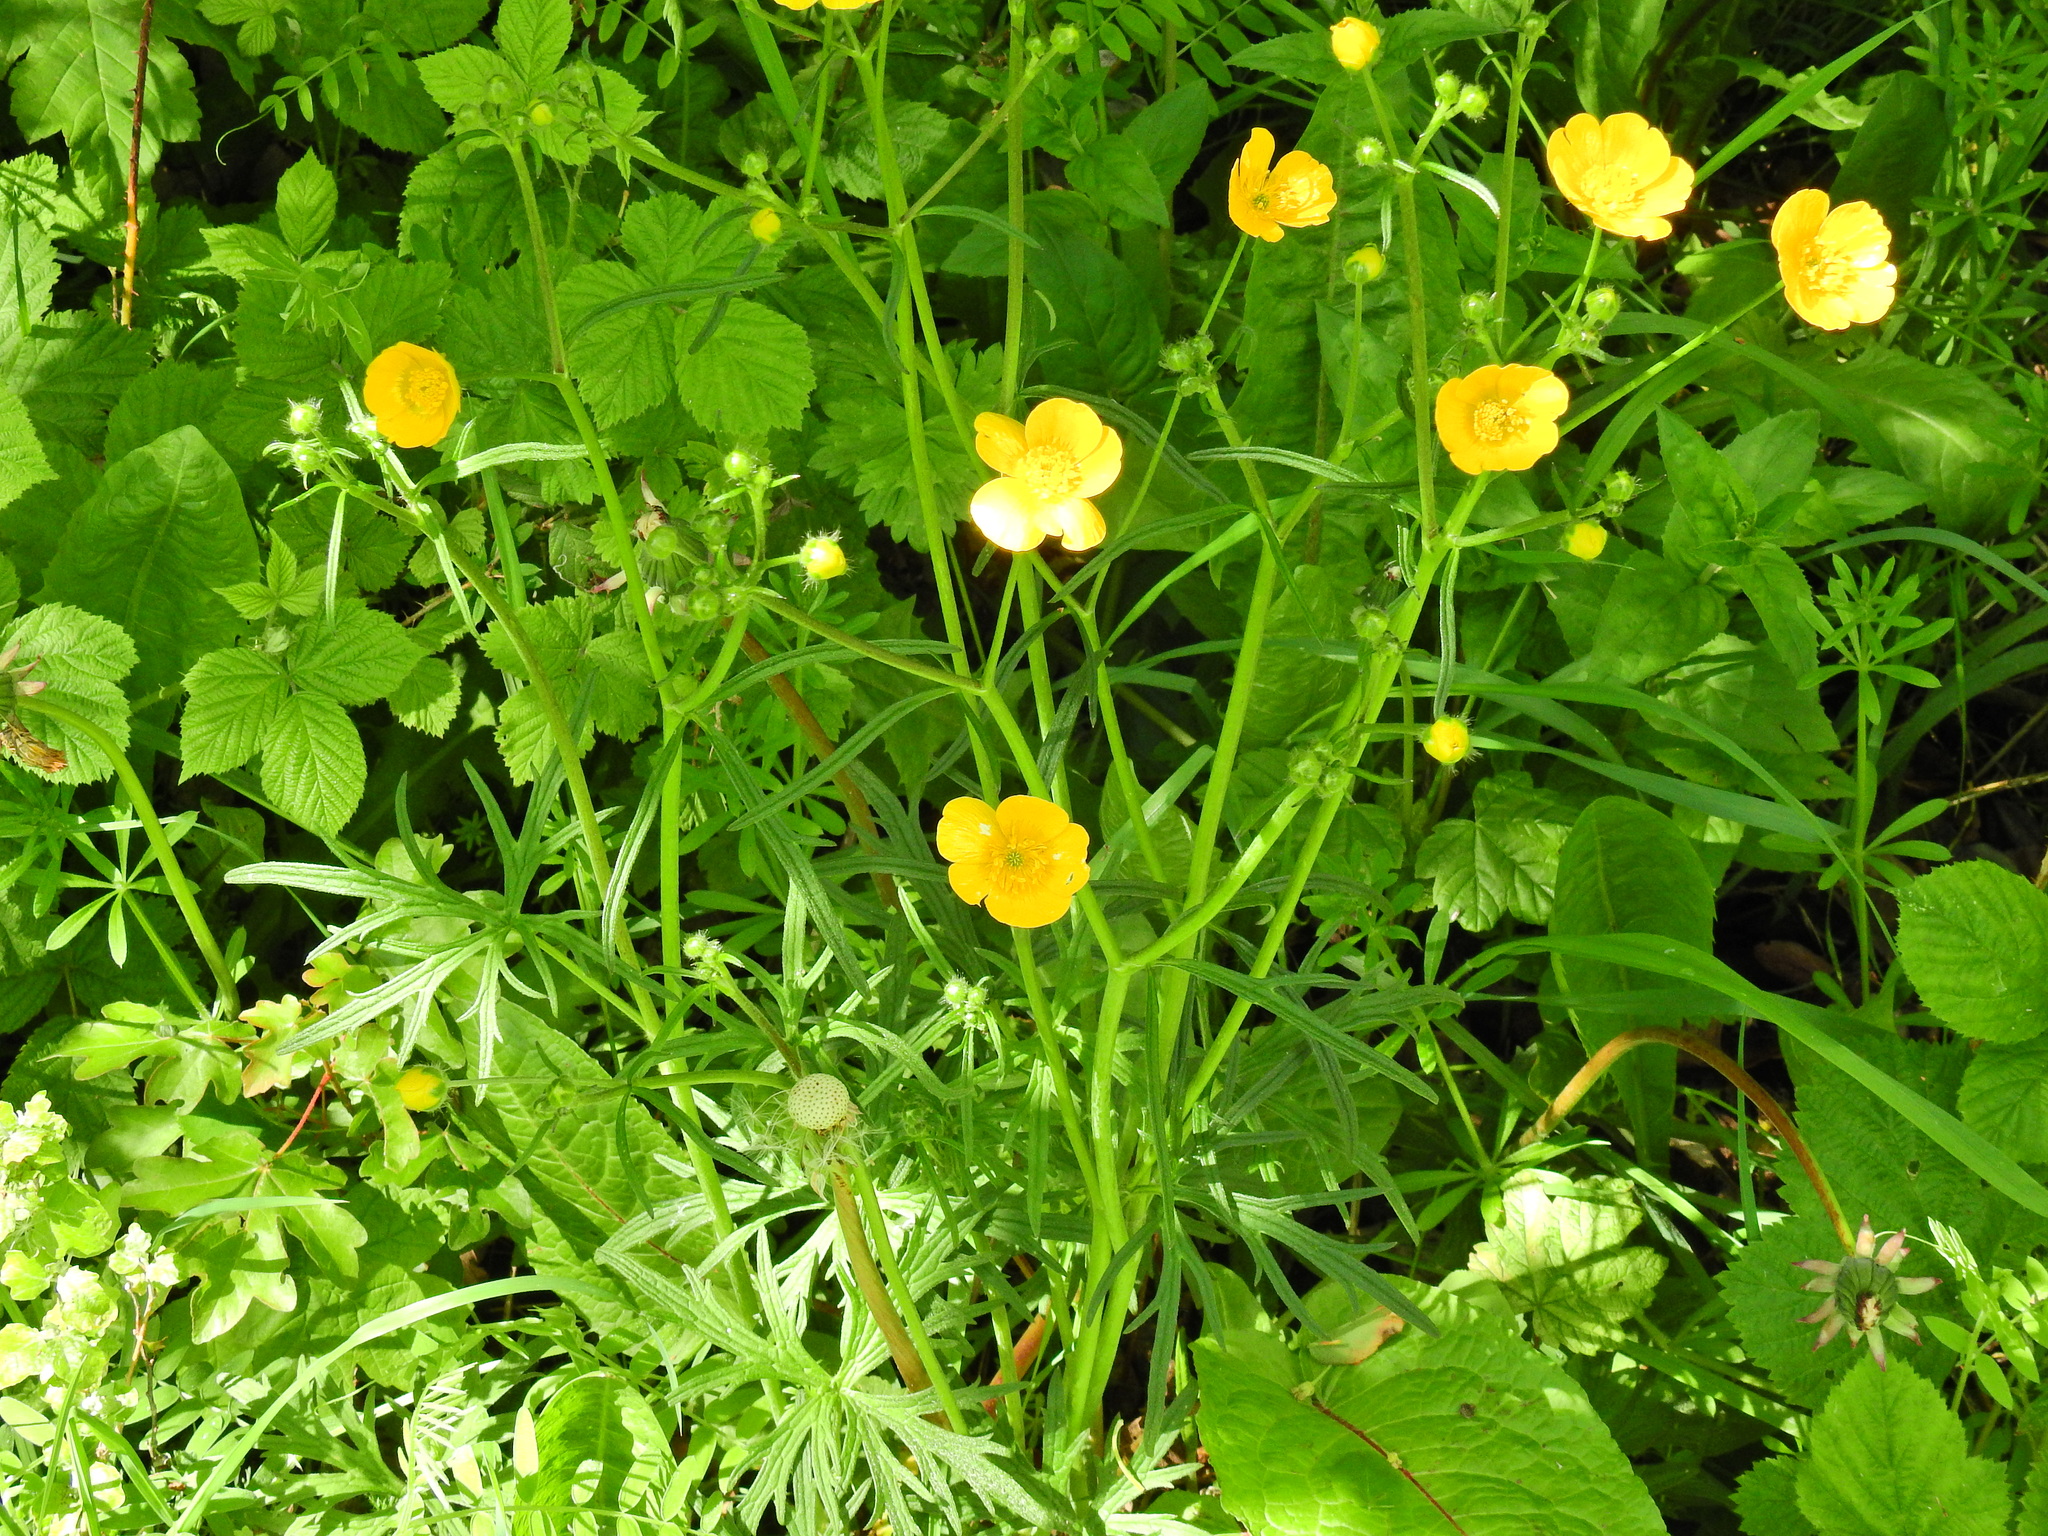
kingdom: Plantae
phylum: Tracheophyta
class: Magnoliopsida
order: Ranunculales
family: Ranunculaceae
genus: Ranunculus
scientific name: Ranunculus acris
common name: Meadow buttercup
